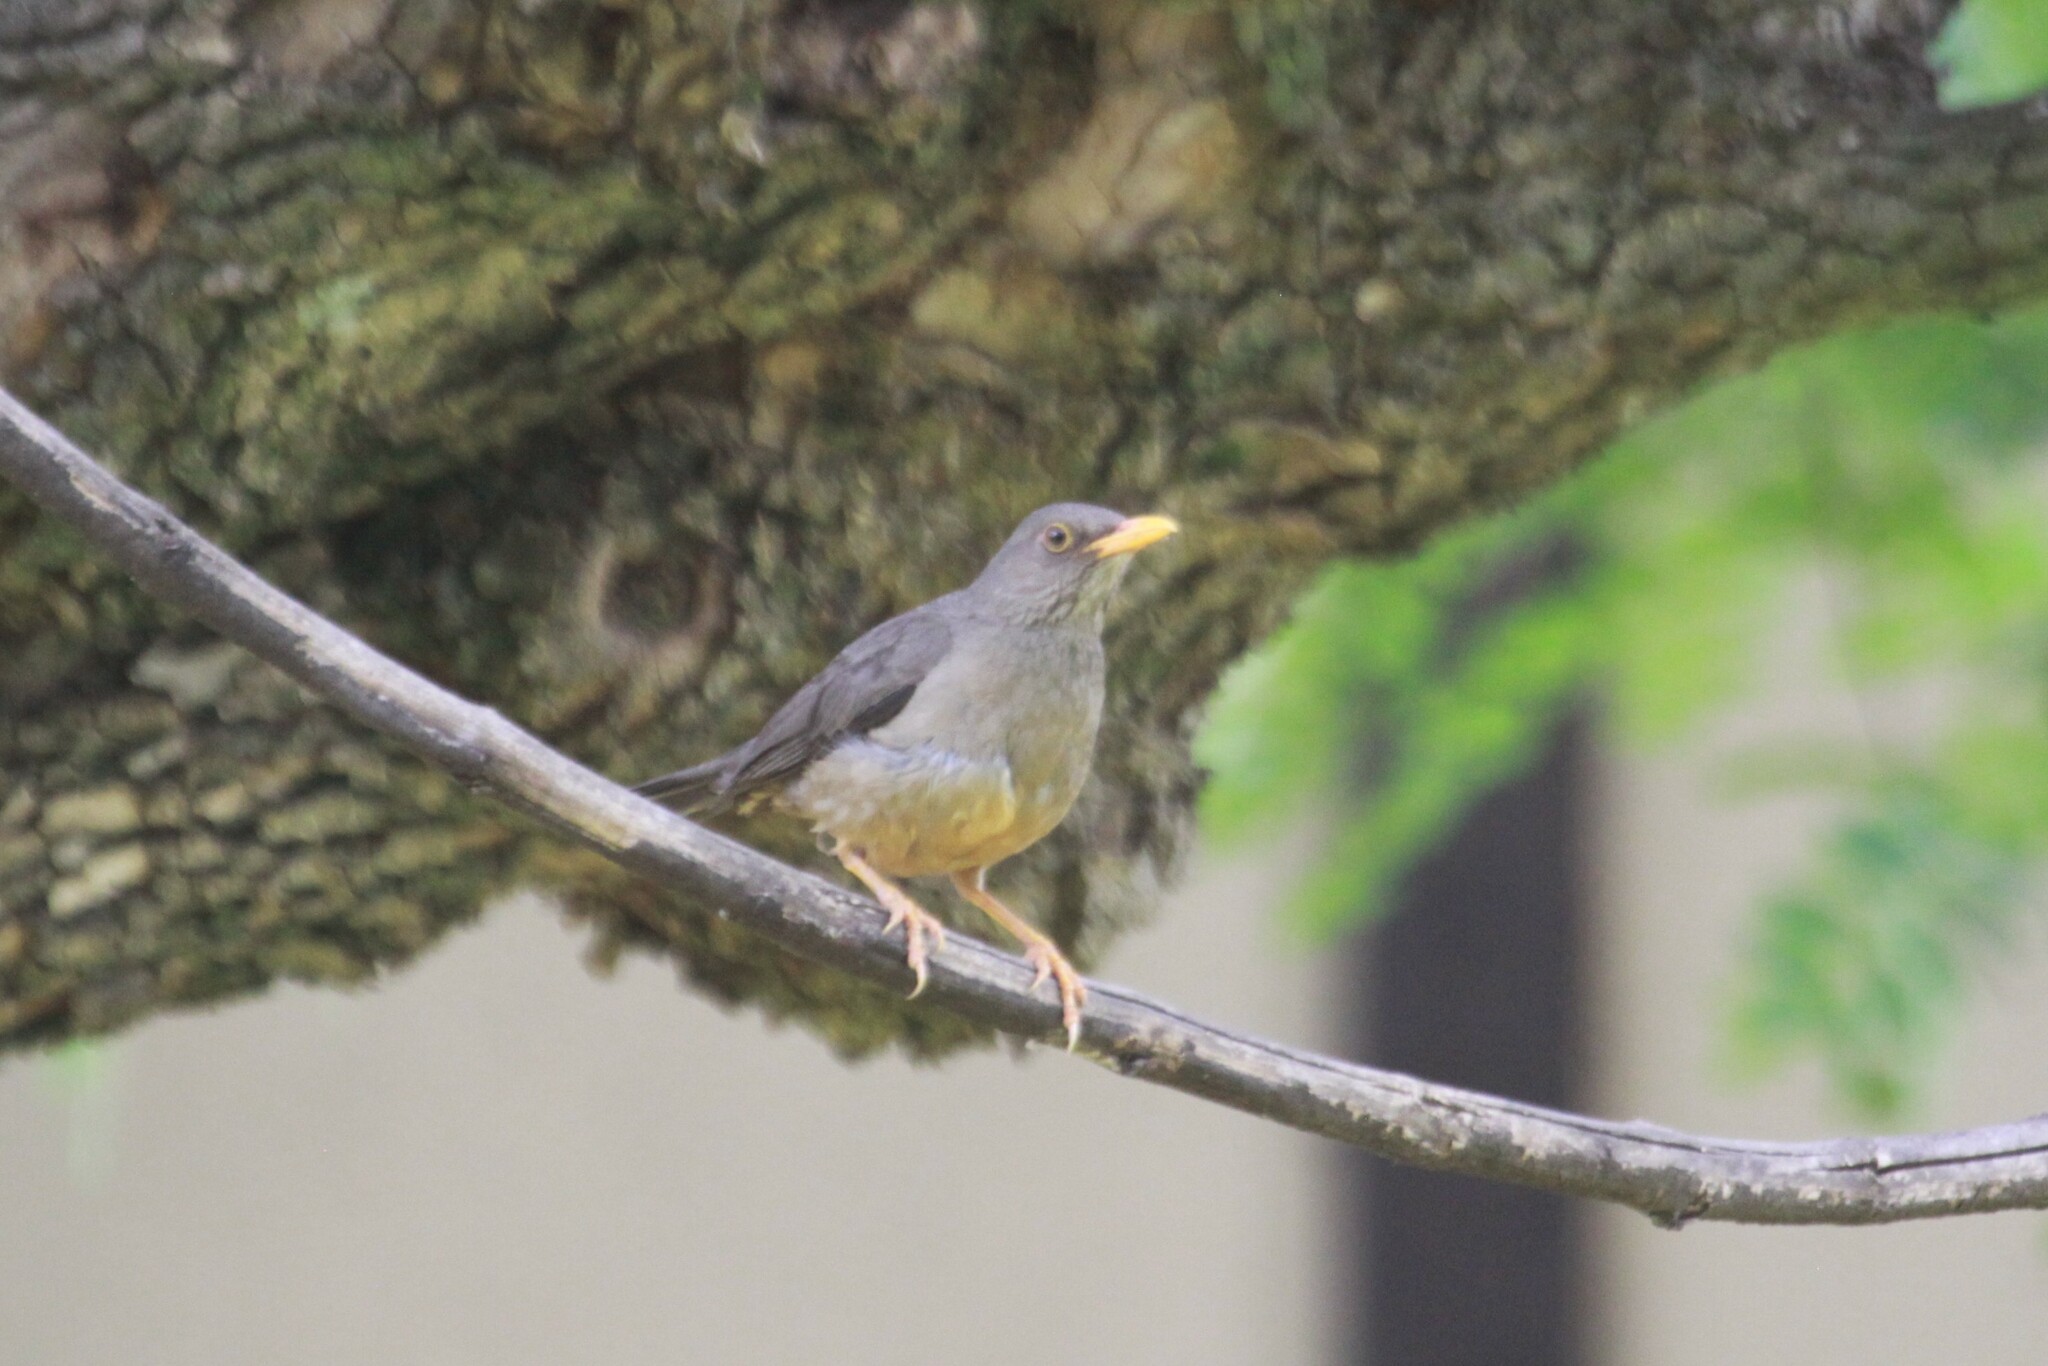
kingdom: Animalia
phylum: Chordata
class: Aves
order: Passeriformes
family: Turdidae
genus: Turdus
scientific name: Turdus smithi
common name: Karoo thrush
